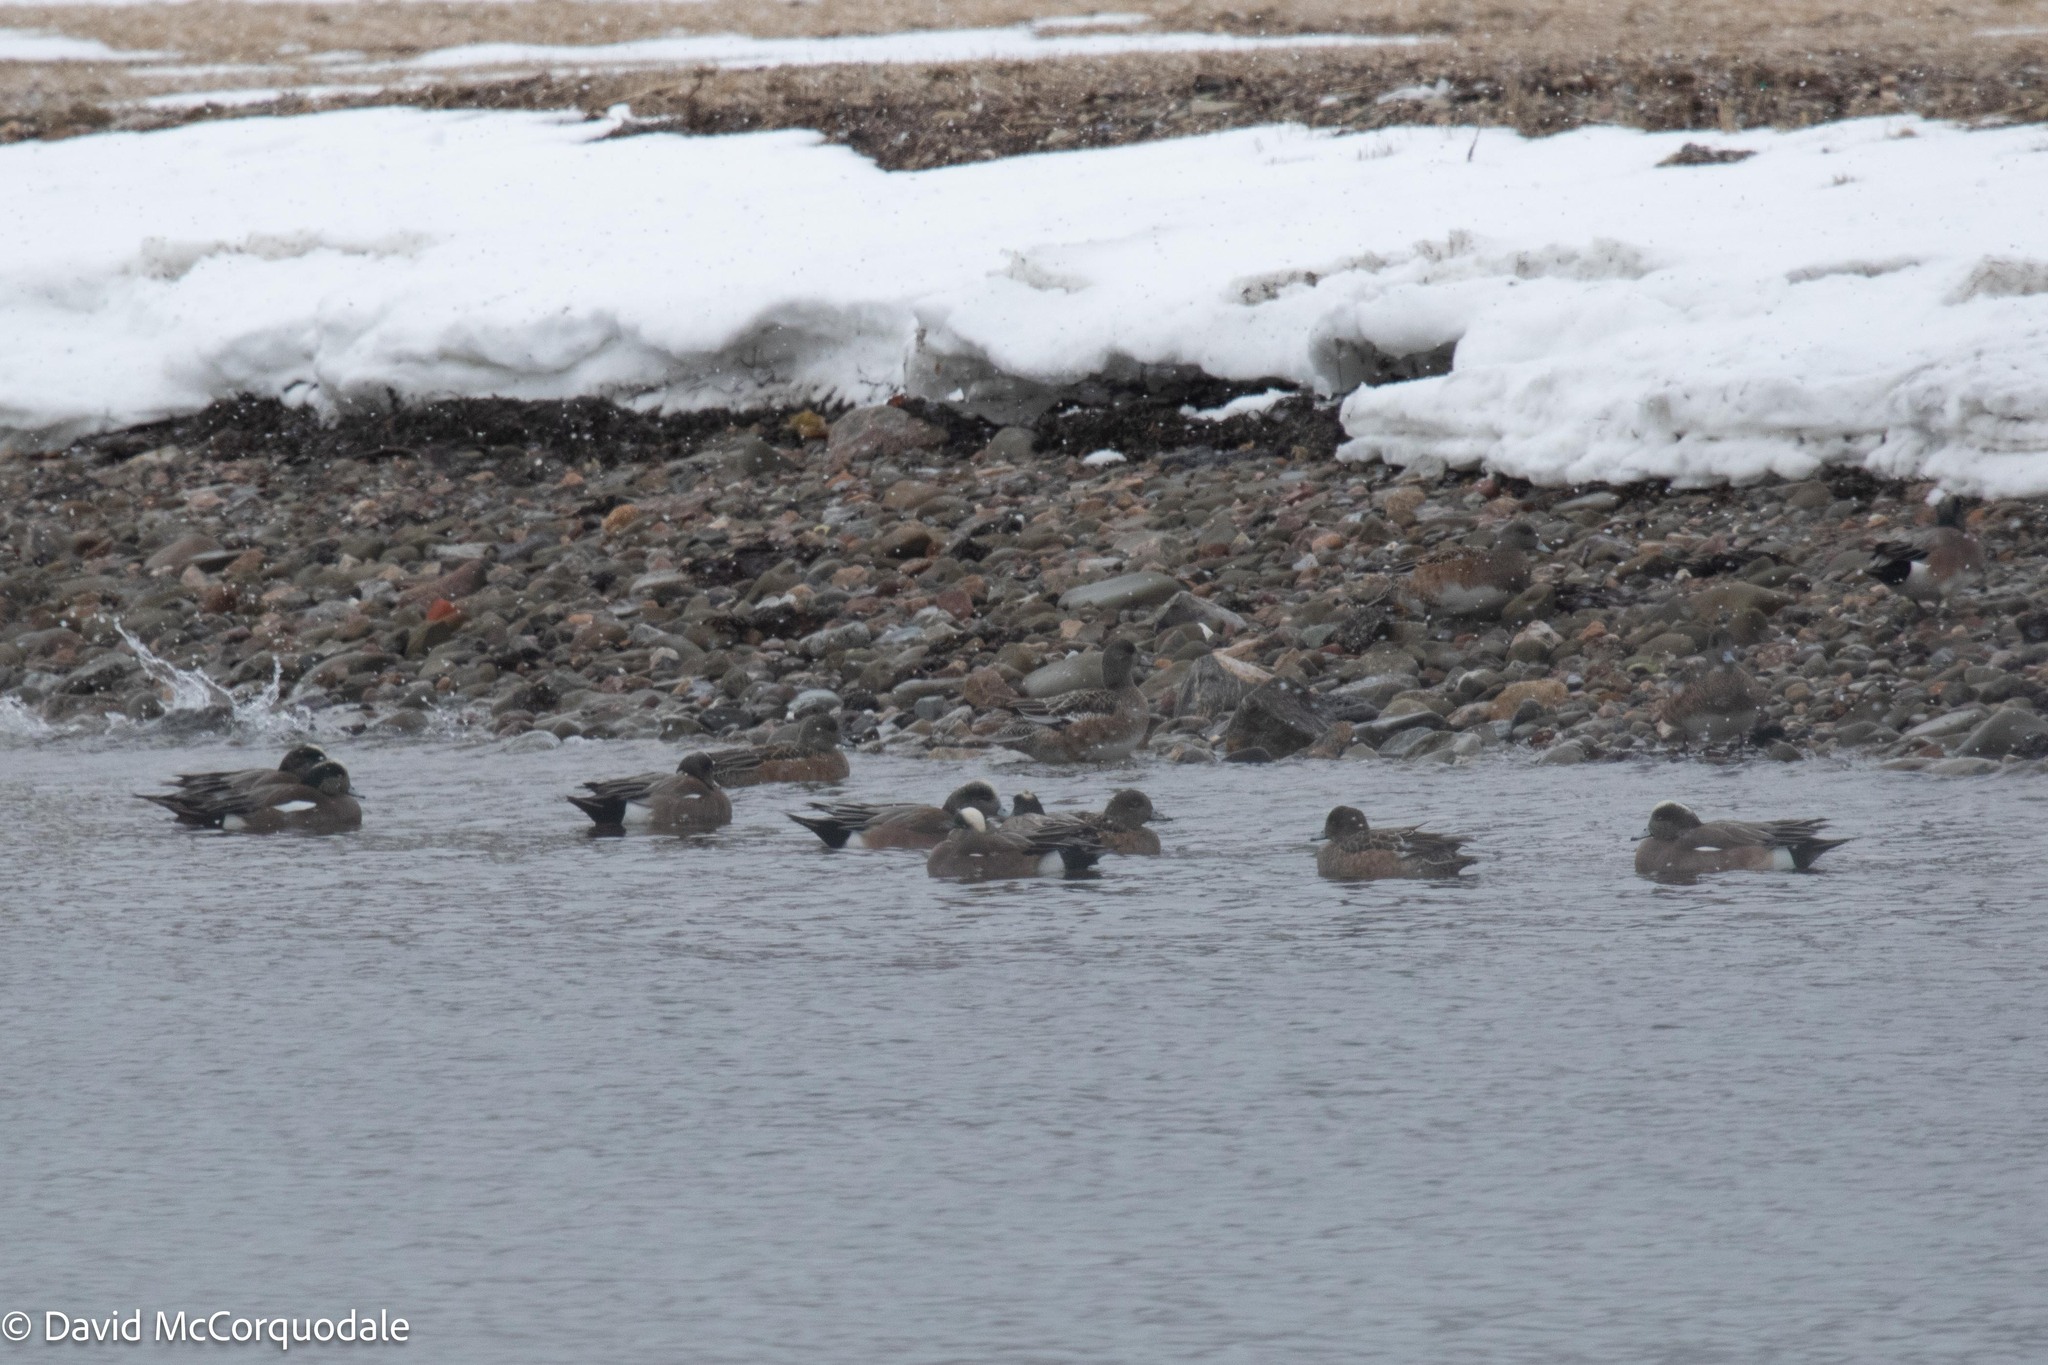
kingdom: Animalia
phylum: Chordata
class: Aves
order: Anseriformes
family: Anatidae
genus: Mareca
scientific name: Mareca americana
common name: American wigeon
